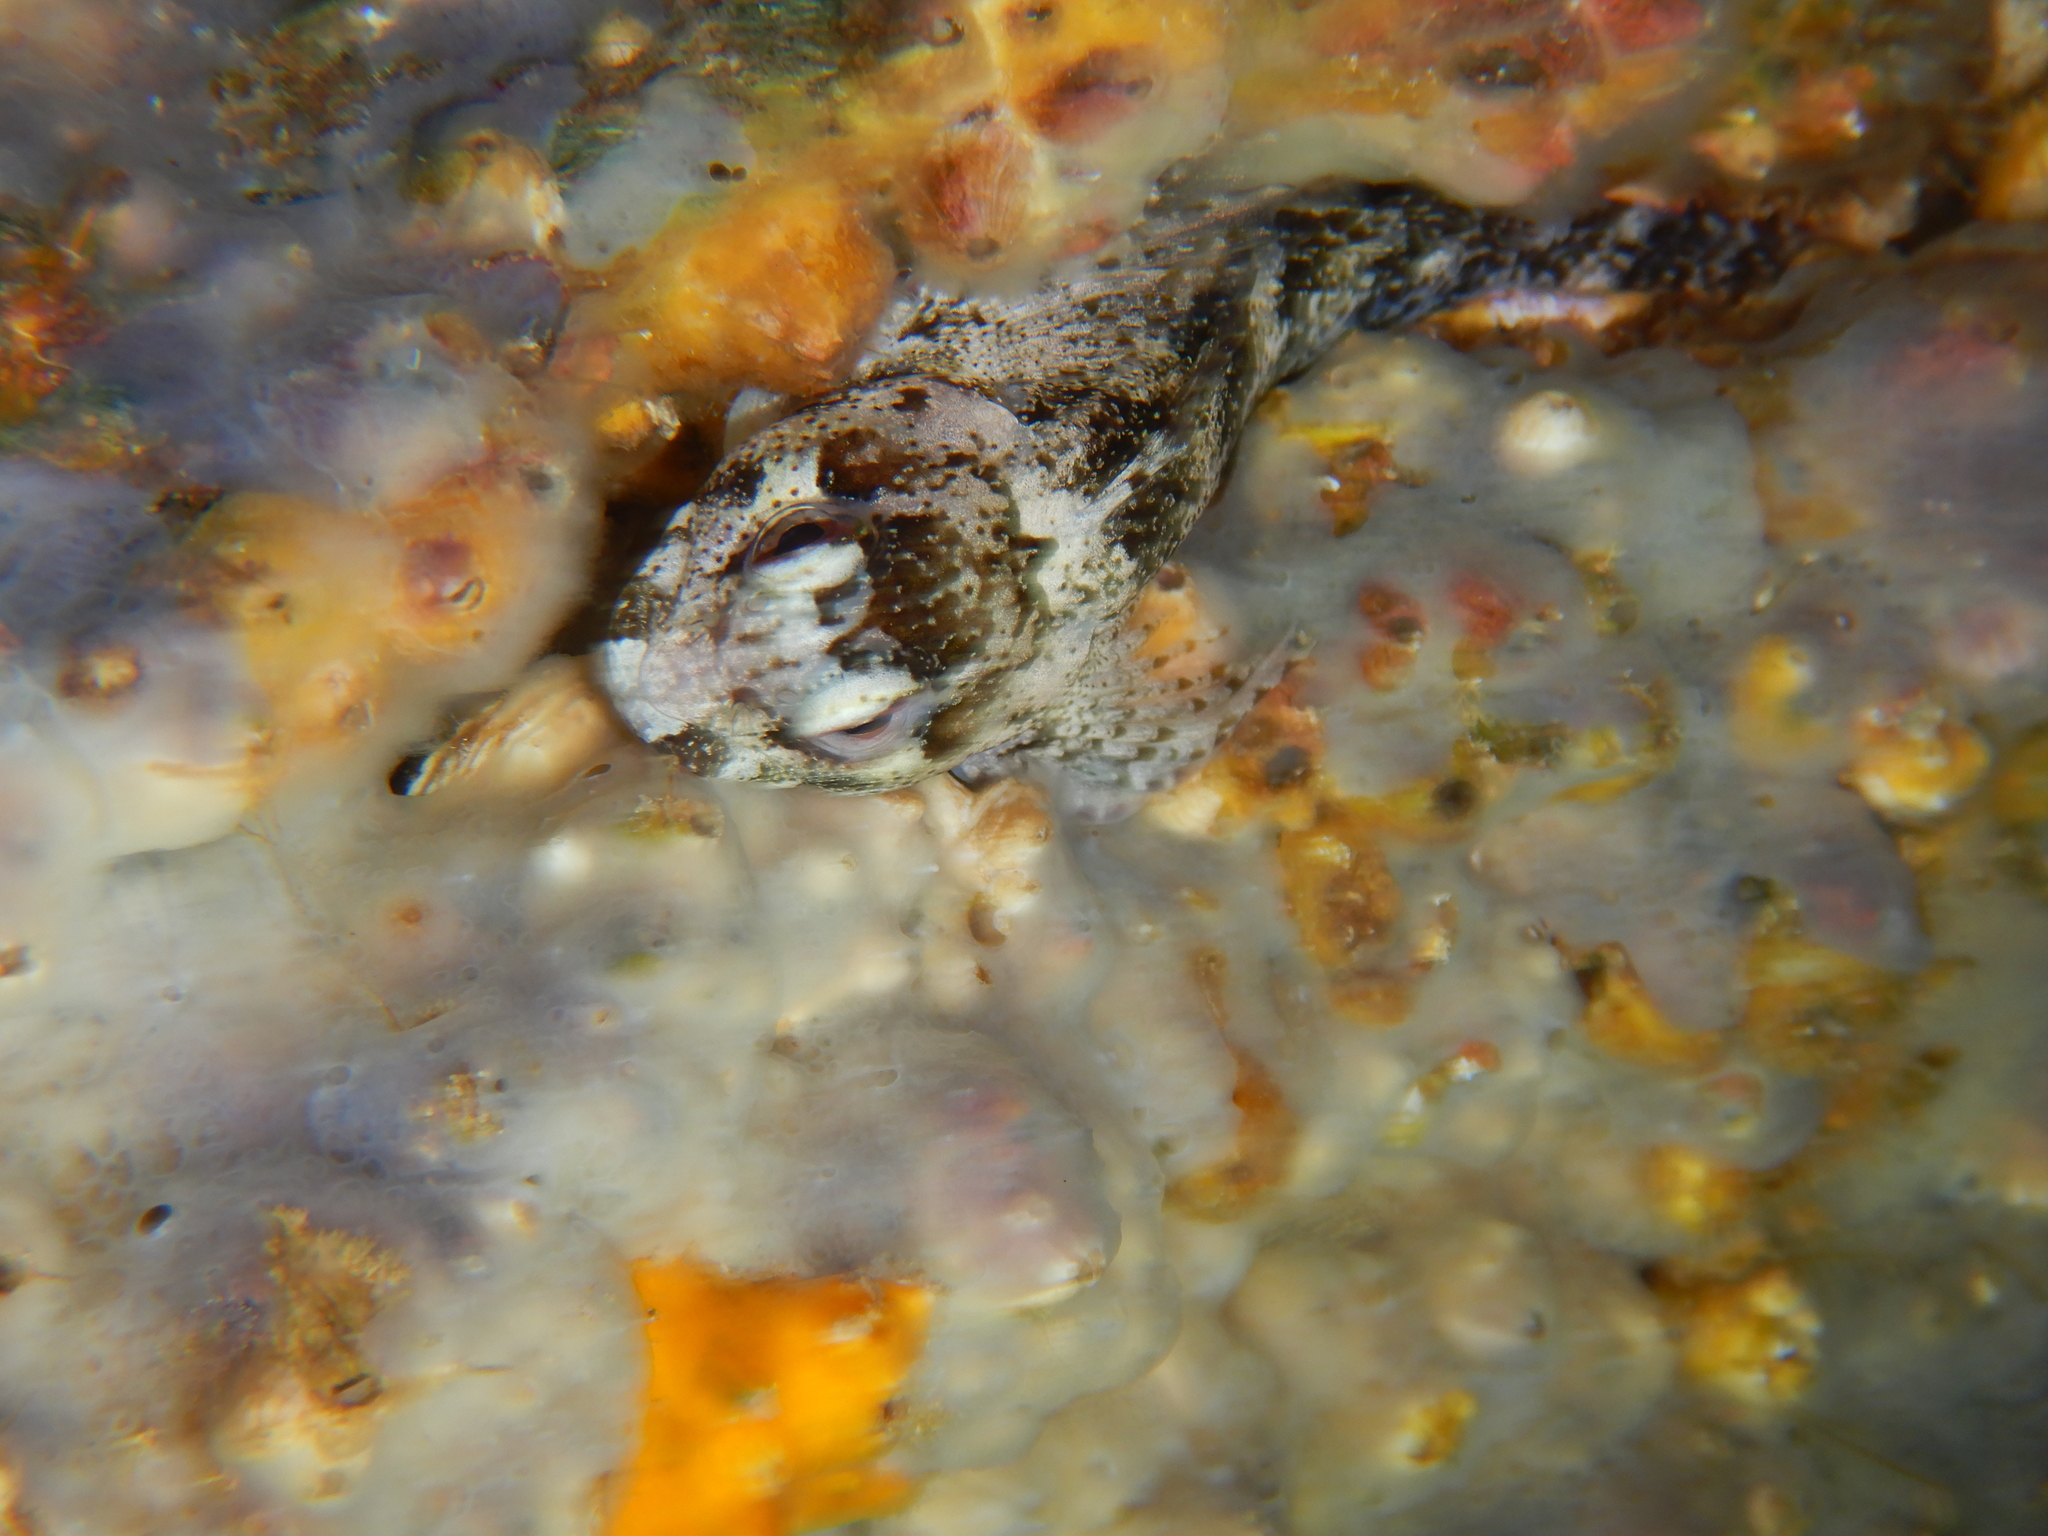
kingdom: Animalia
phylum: Chordata
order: Perciformes
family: Blenniidae
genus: Lipophrys
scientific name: Lipophrys trigloides
